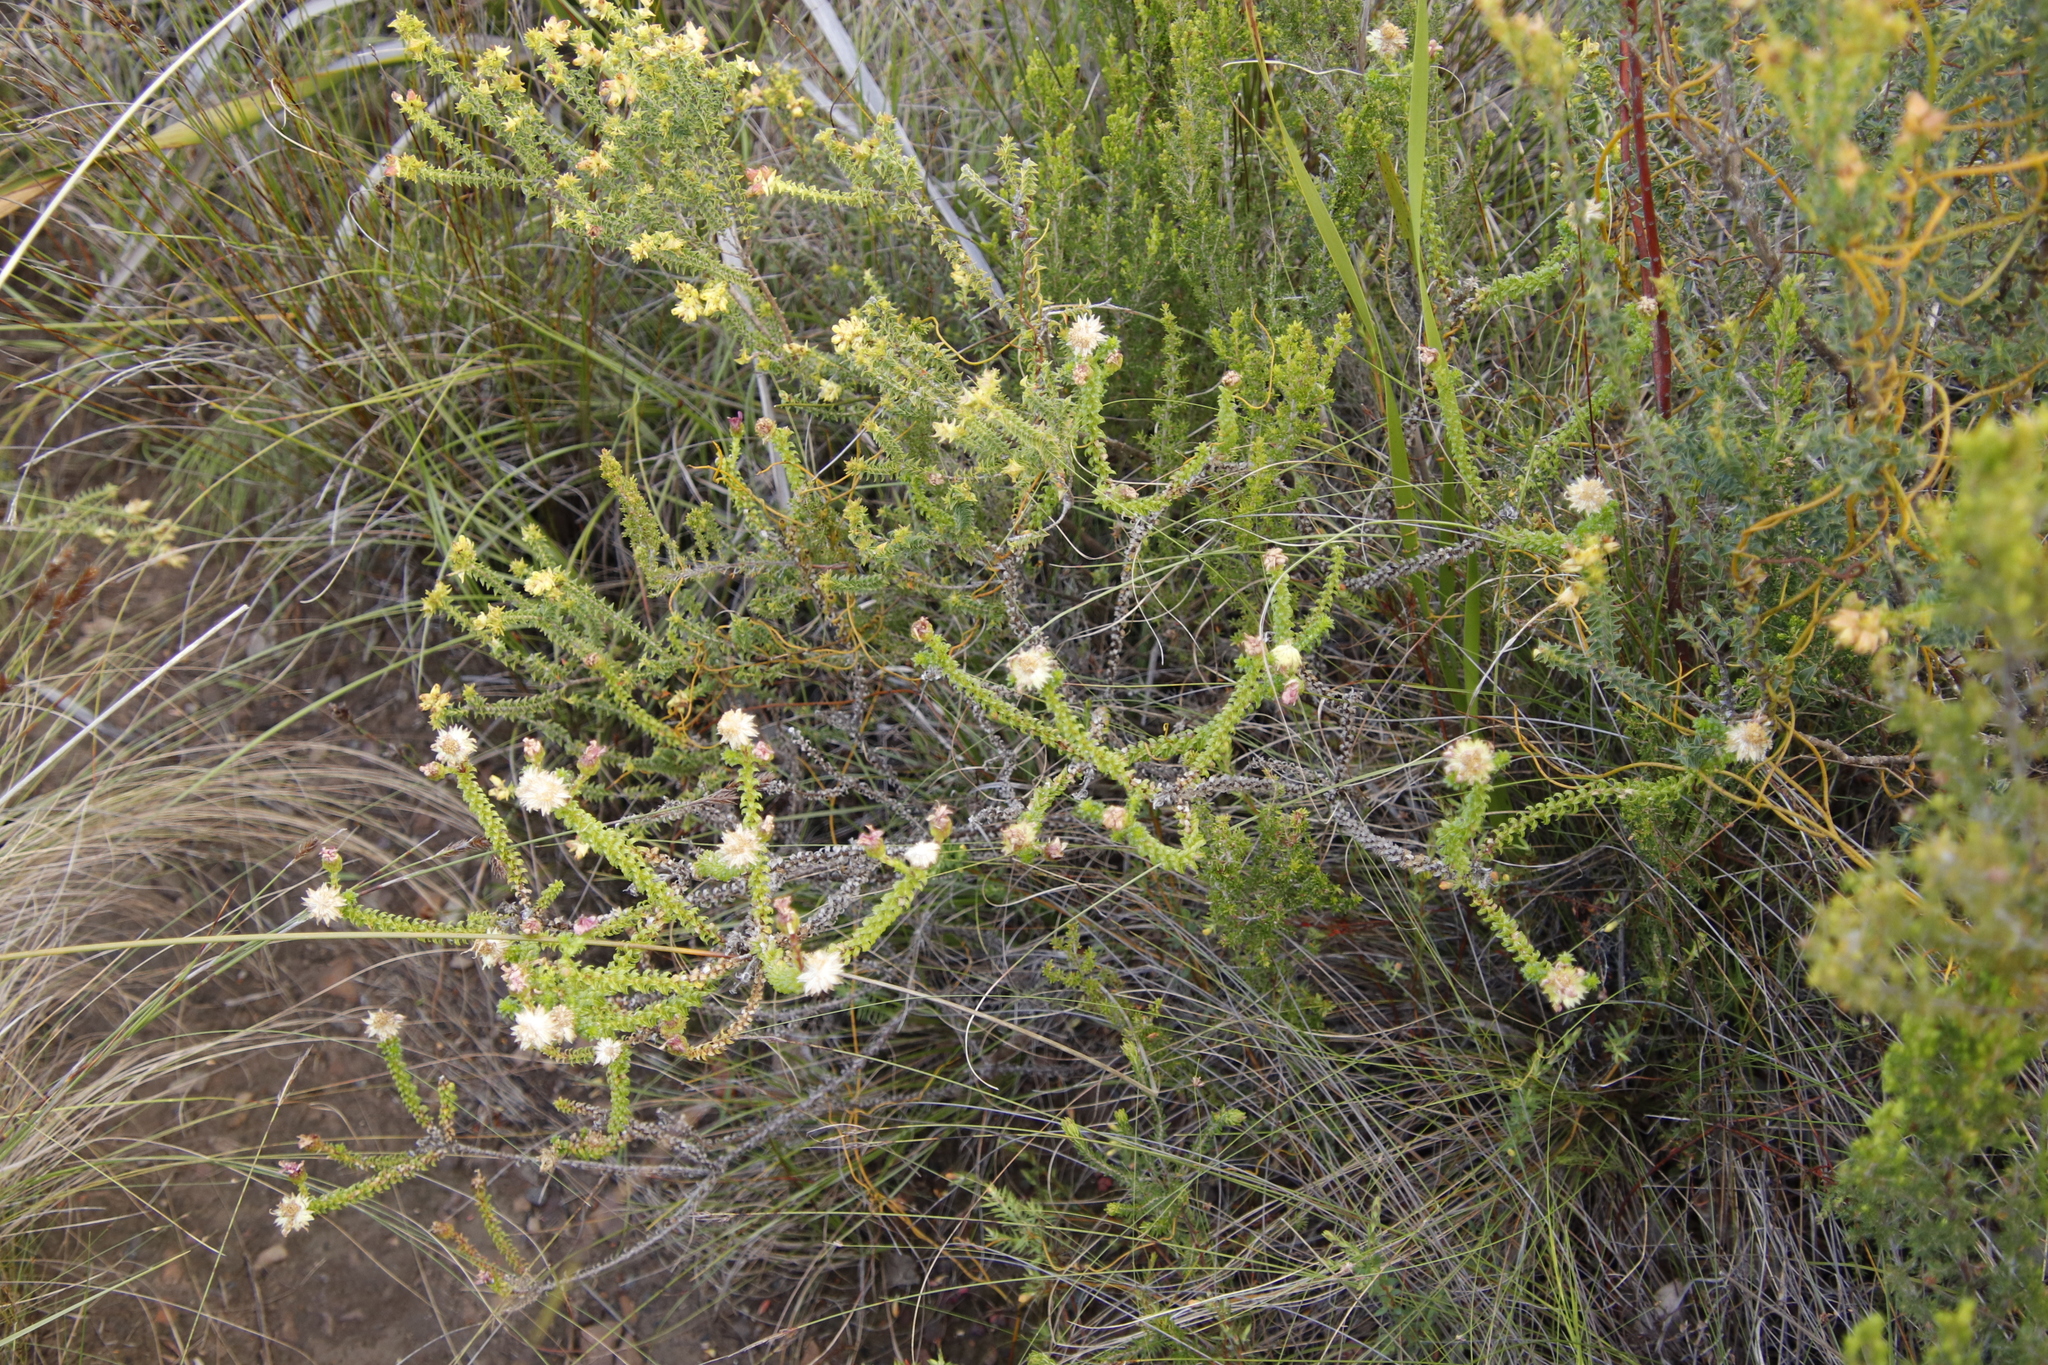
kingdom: Plantae
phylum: Tracheophyta
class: Magnoliopsida
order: Asterales
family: Asteraceae
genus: Polyarrhena
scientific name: Polyarrhena reflexa
